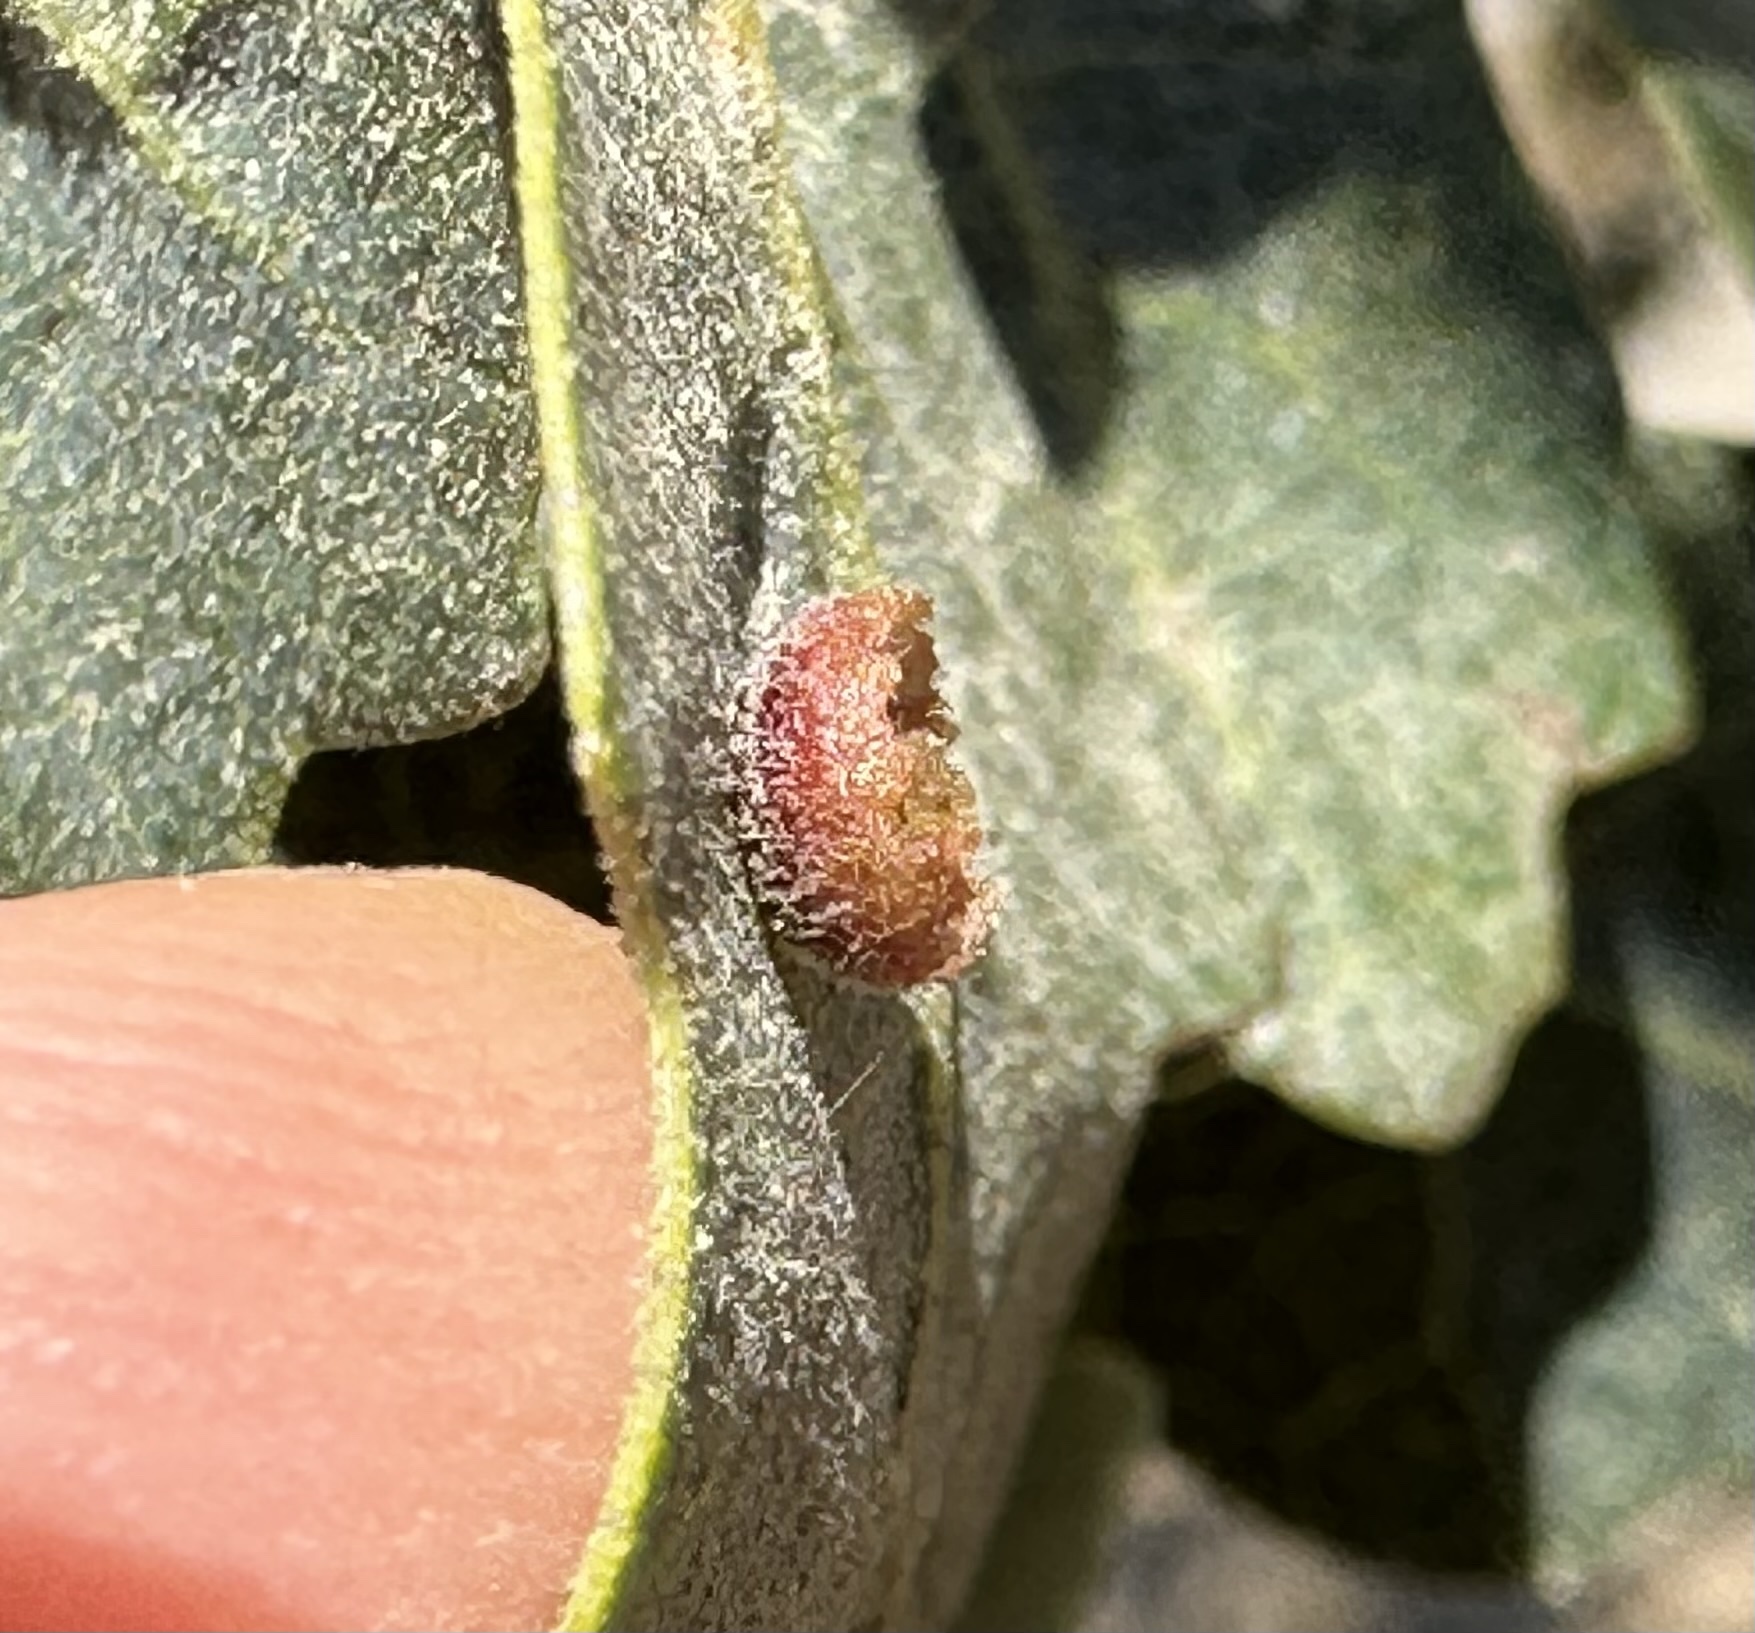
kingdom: Animalia
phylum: Arthropoda
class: Insecta
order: Hymenoptera
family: Cynipidae
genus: Andricus
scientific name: Andricus
